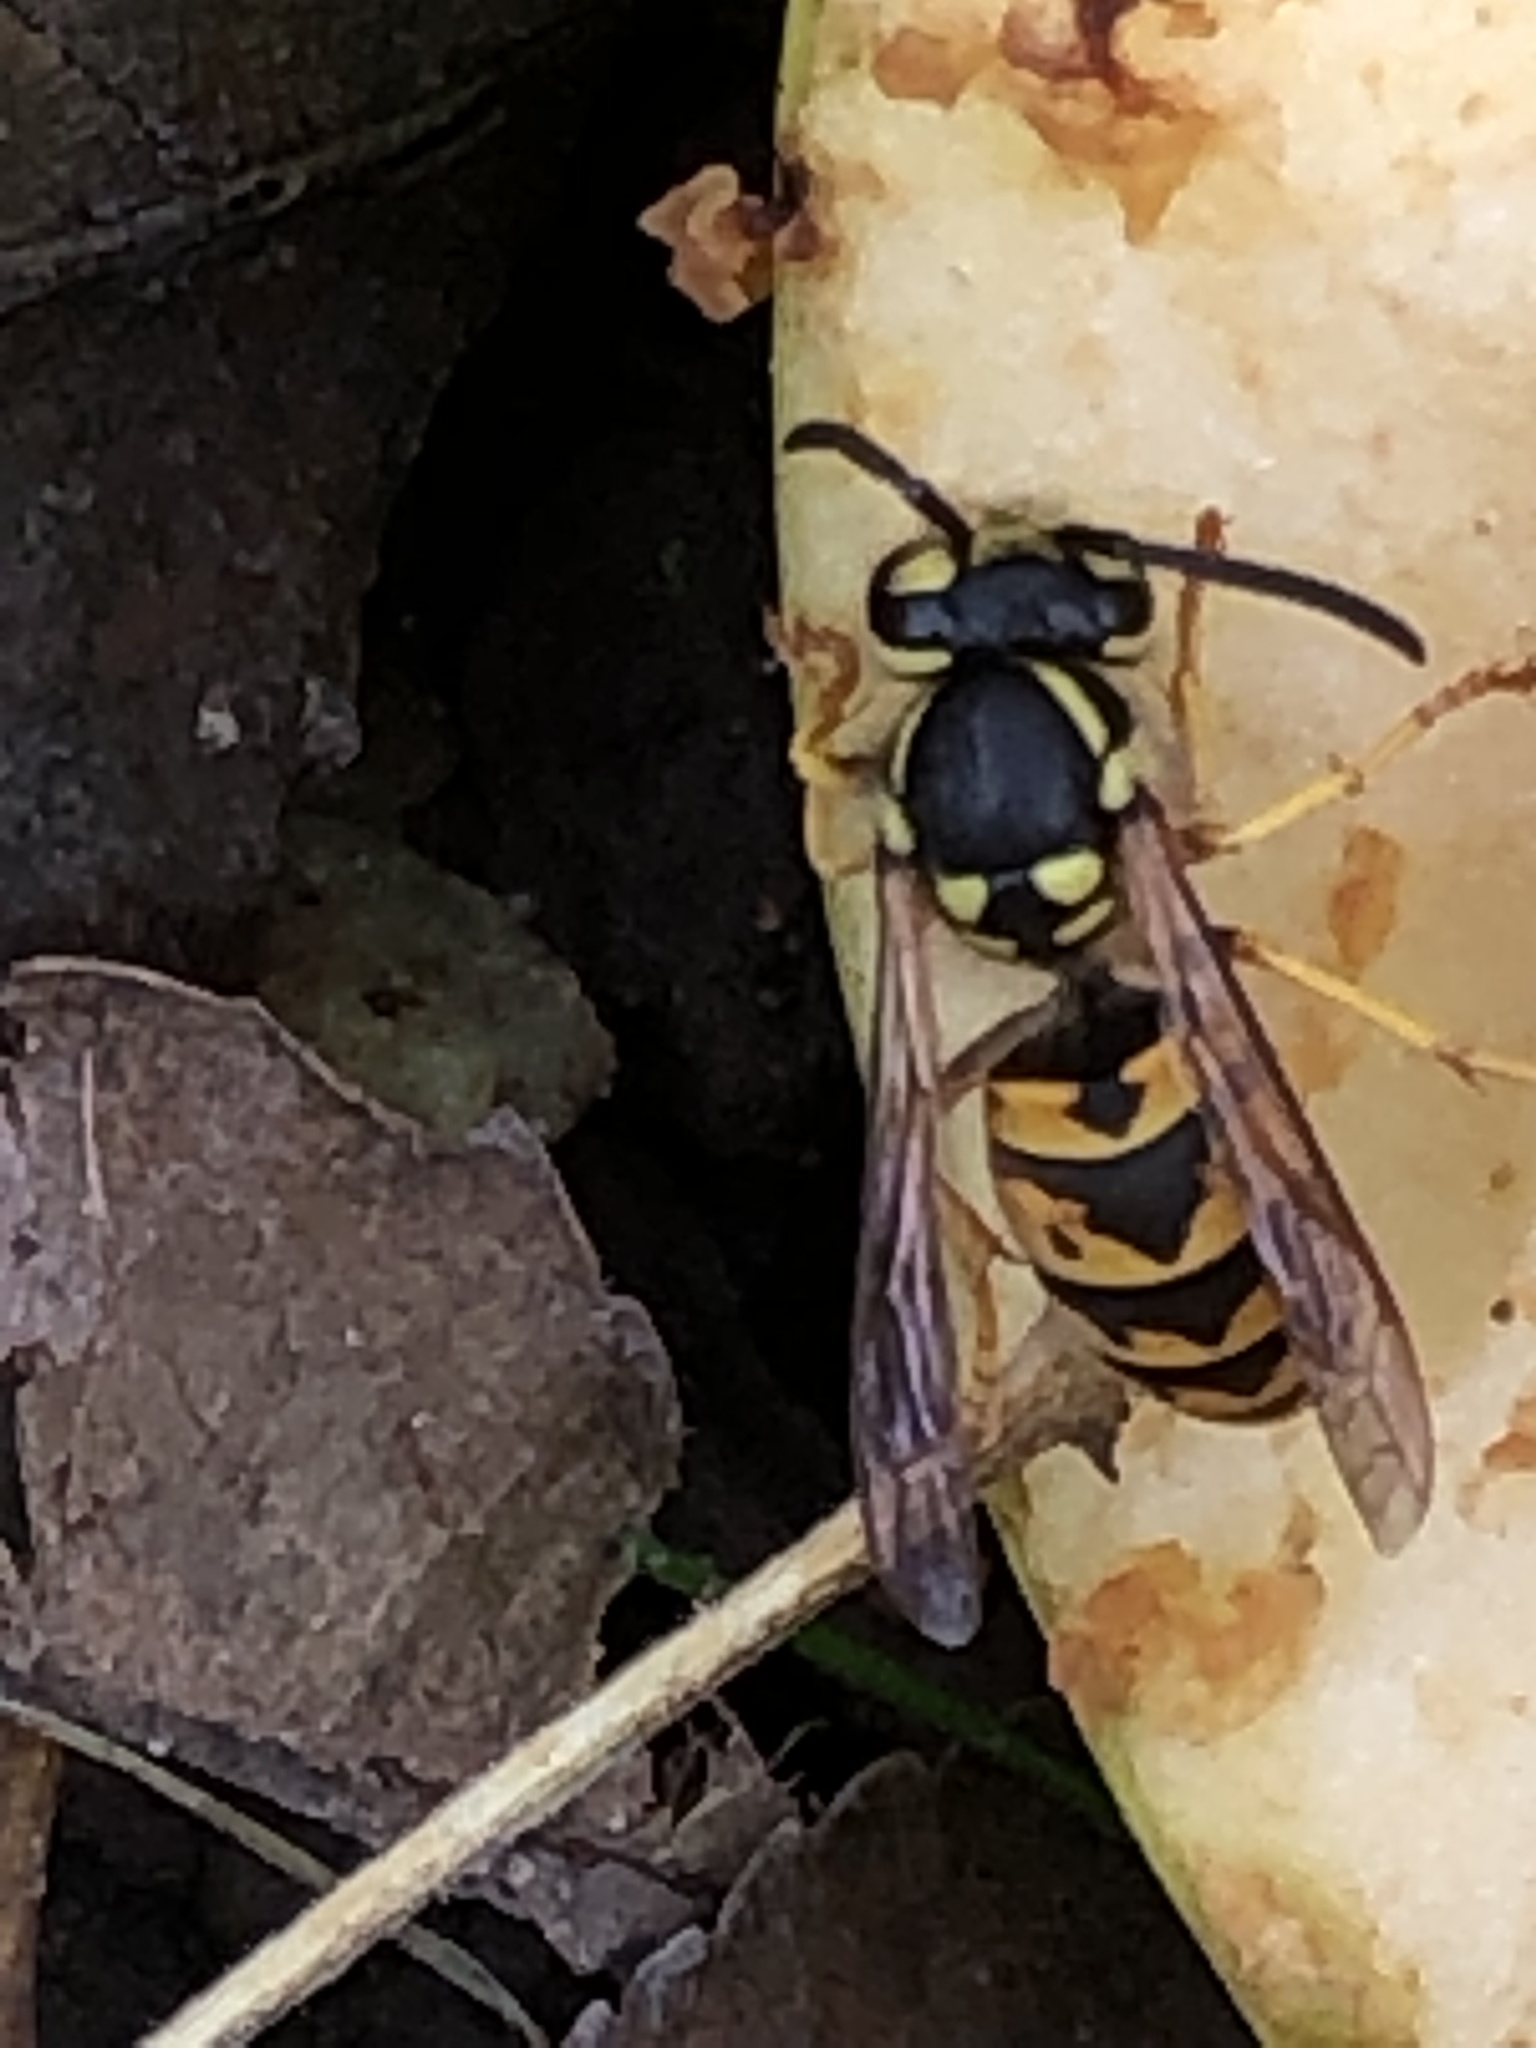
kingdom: Animalia
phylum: Arthropoda
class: Insecta
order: Hymenoptera
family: Vespidae
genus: Vespula
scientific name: Vespula germanica
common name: German wasp
